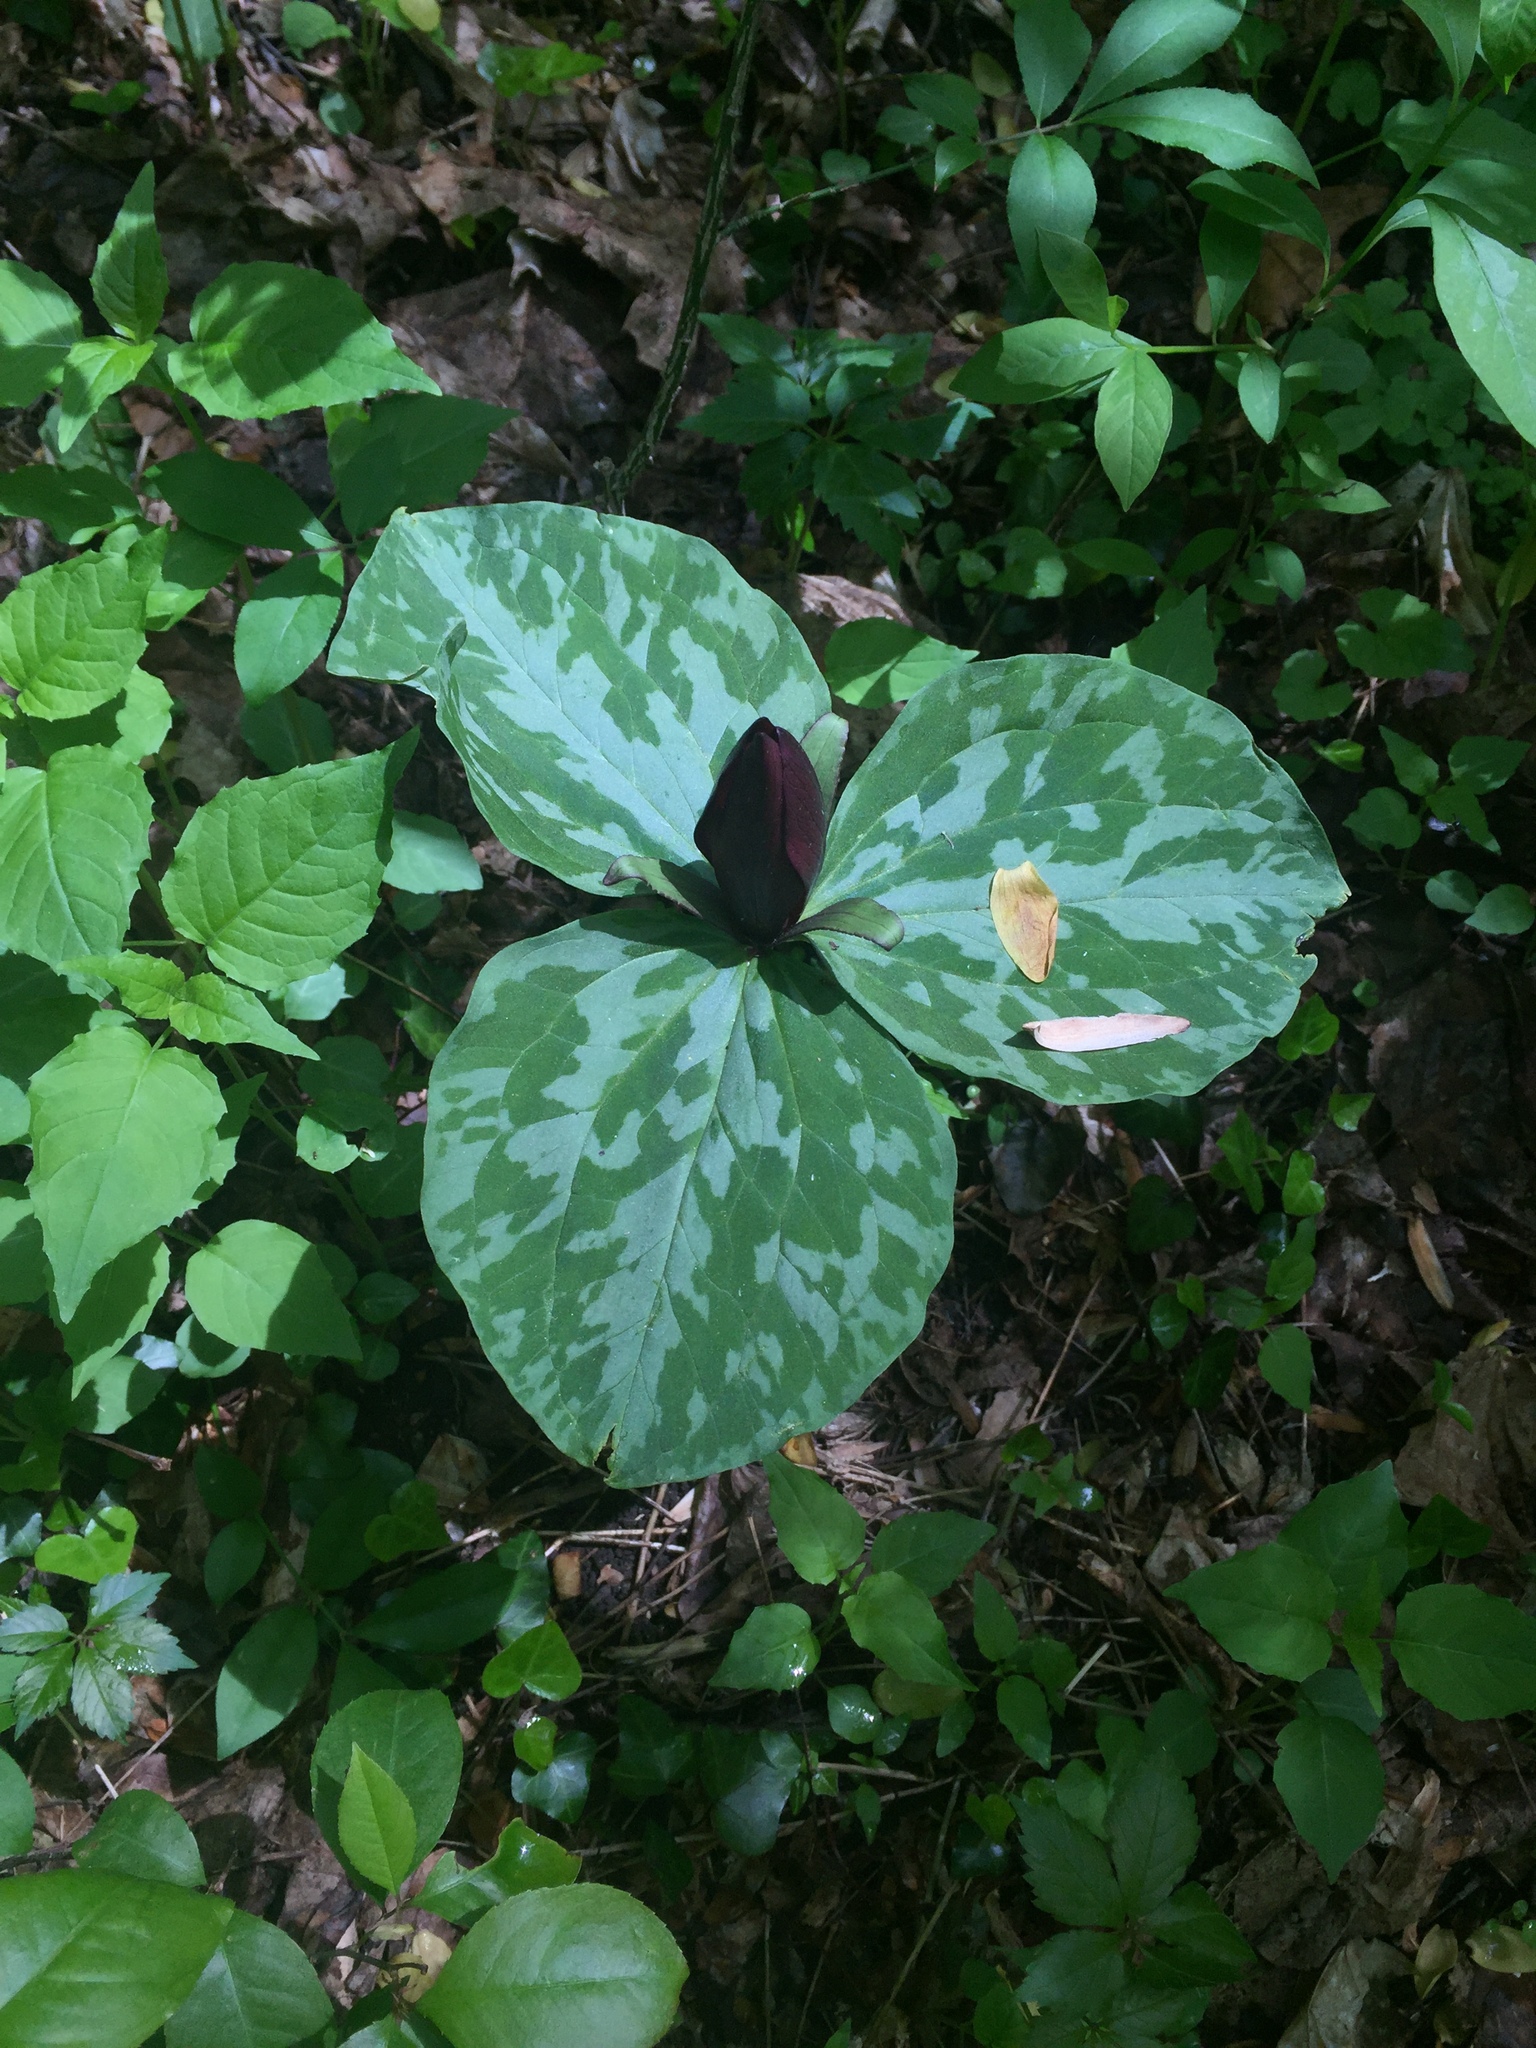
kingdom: Plantae
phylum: Tracheophyta
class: Liliopsida
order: Liliales
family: Melanthiaceae
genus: Trillium
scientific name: Trillium cuneatum
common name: Cuneate trillium
